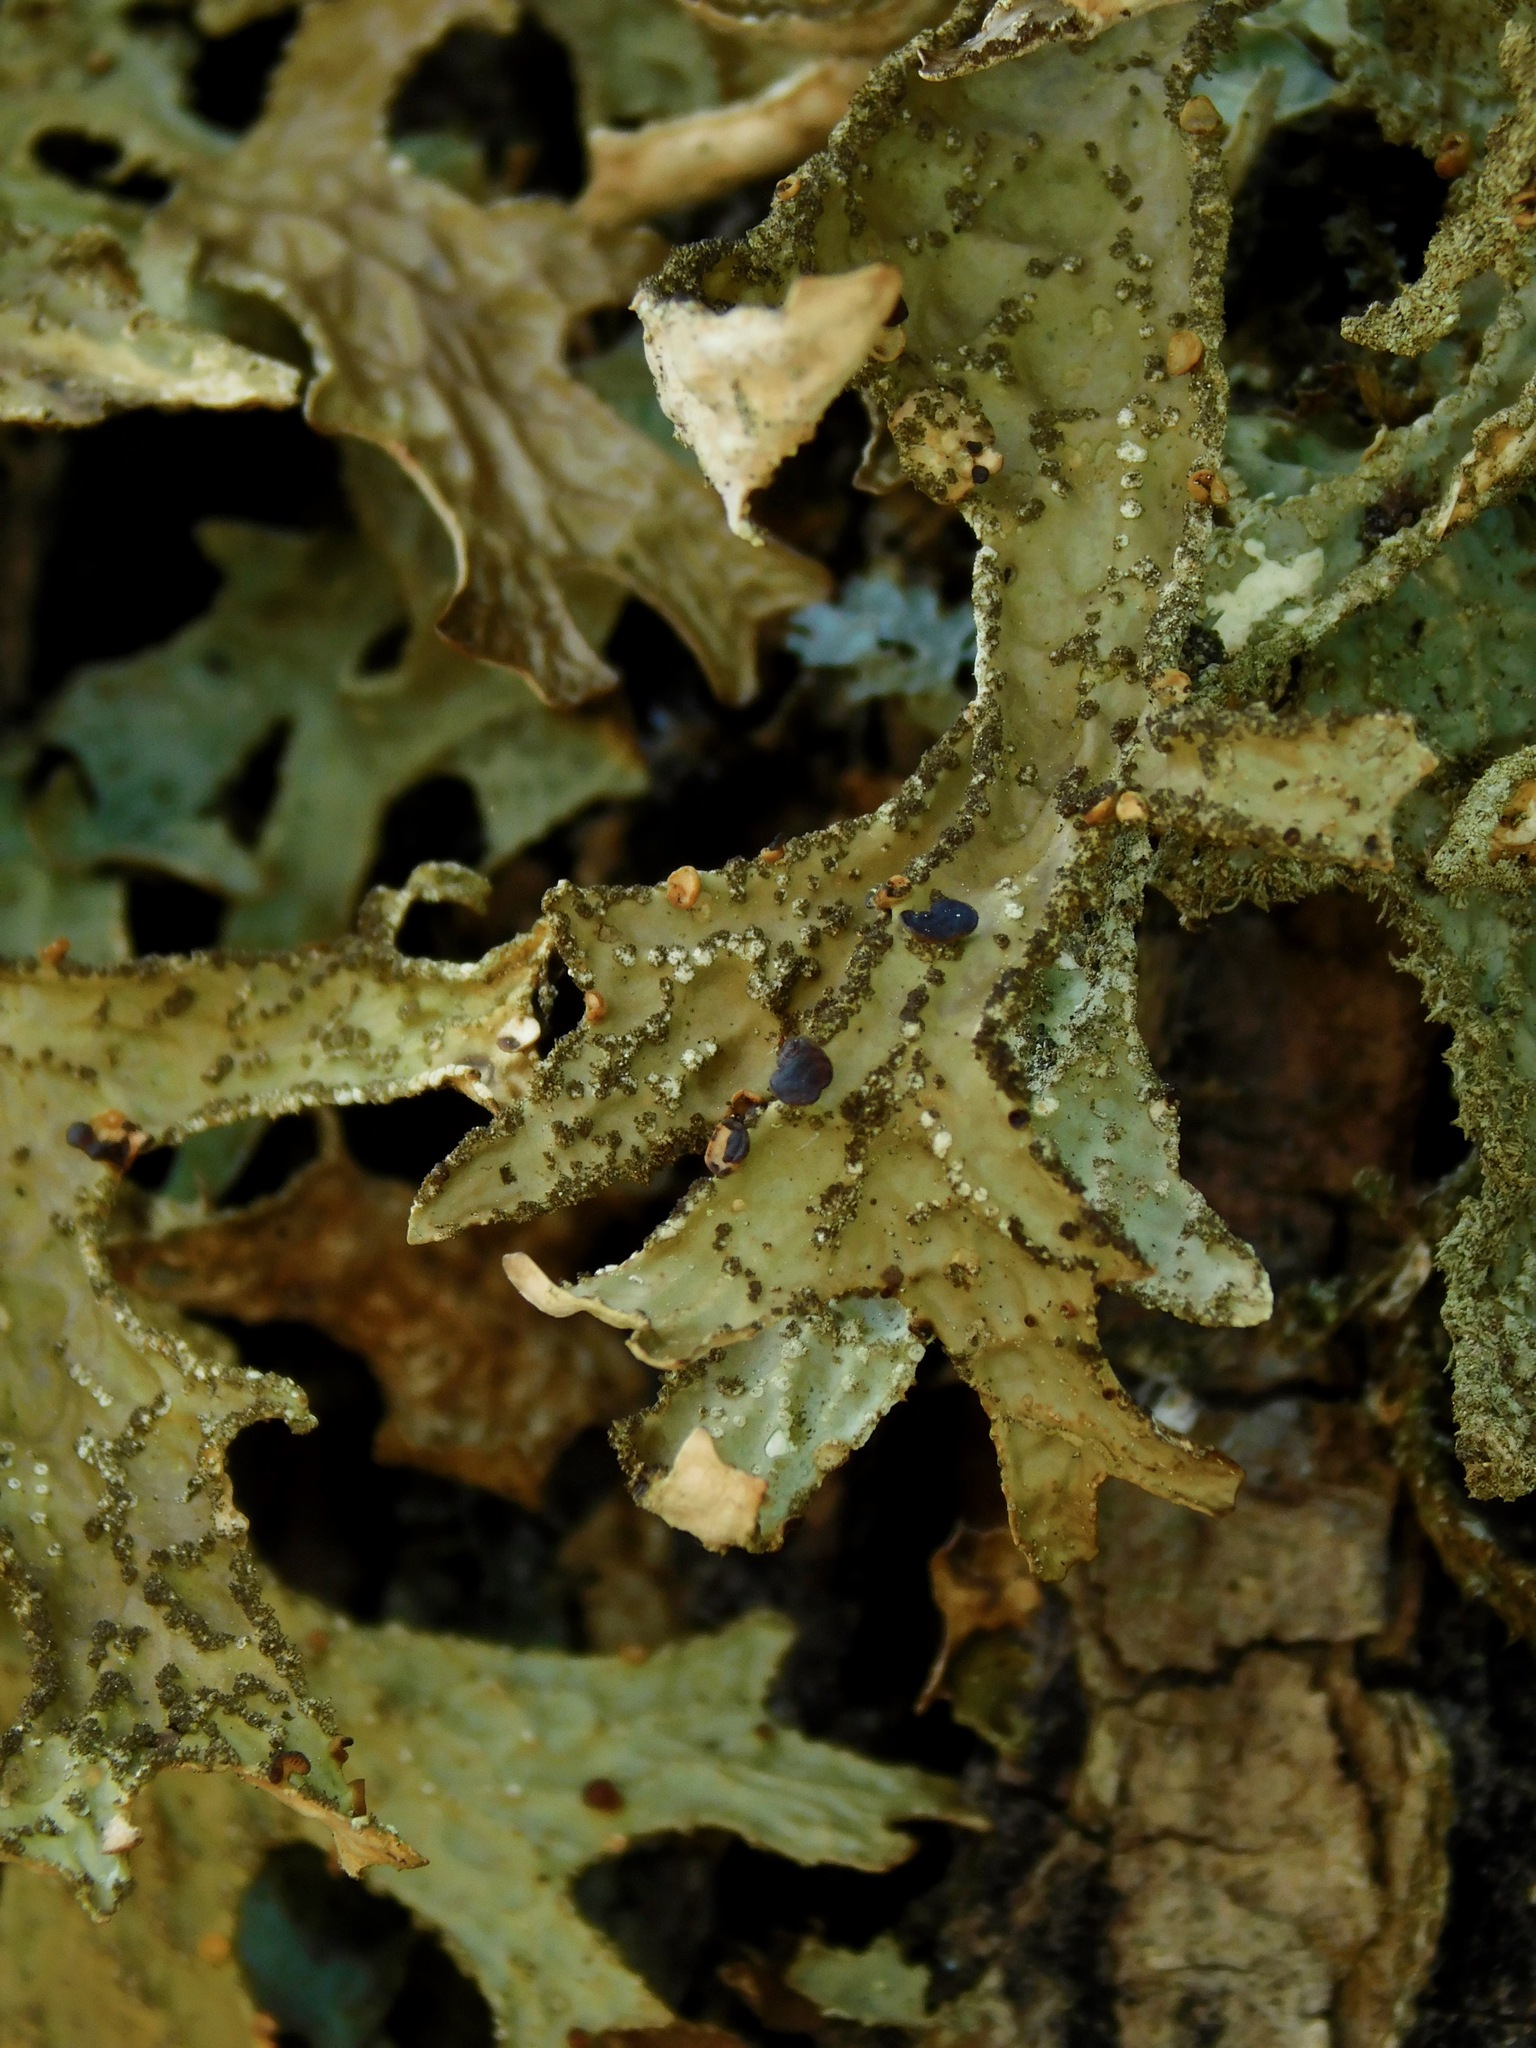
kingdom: Fungi
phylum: Ascomycota
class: Lecanoromycetes
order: Peltigerales
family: Lobariaceae
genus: Lobaria
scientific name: Lobaria pulmonaria
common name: Lungwort
